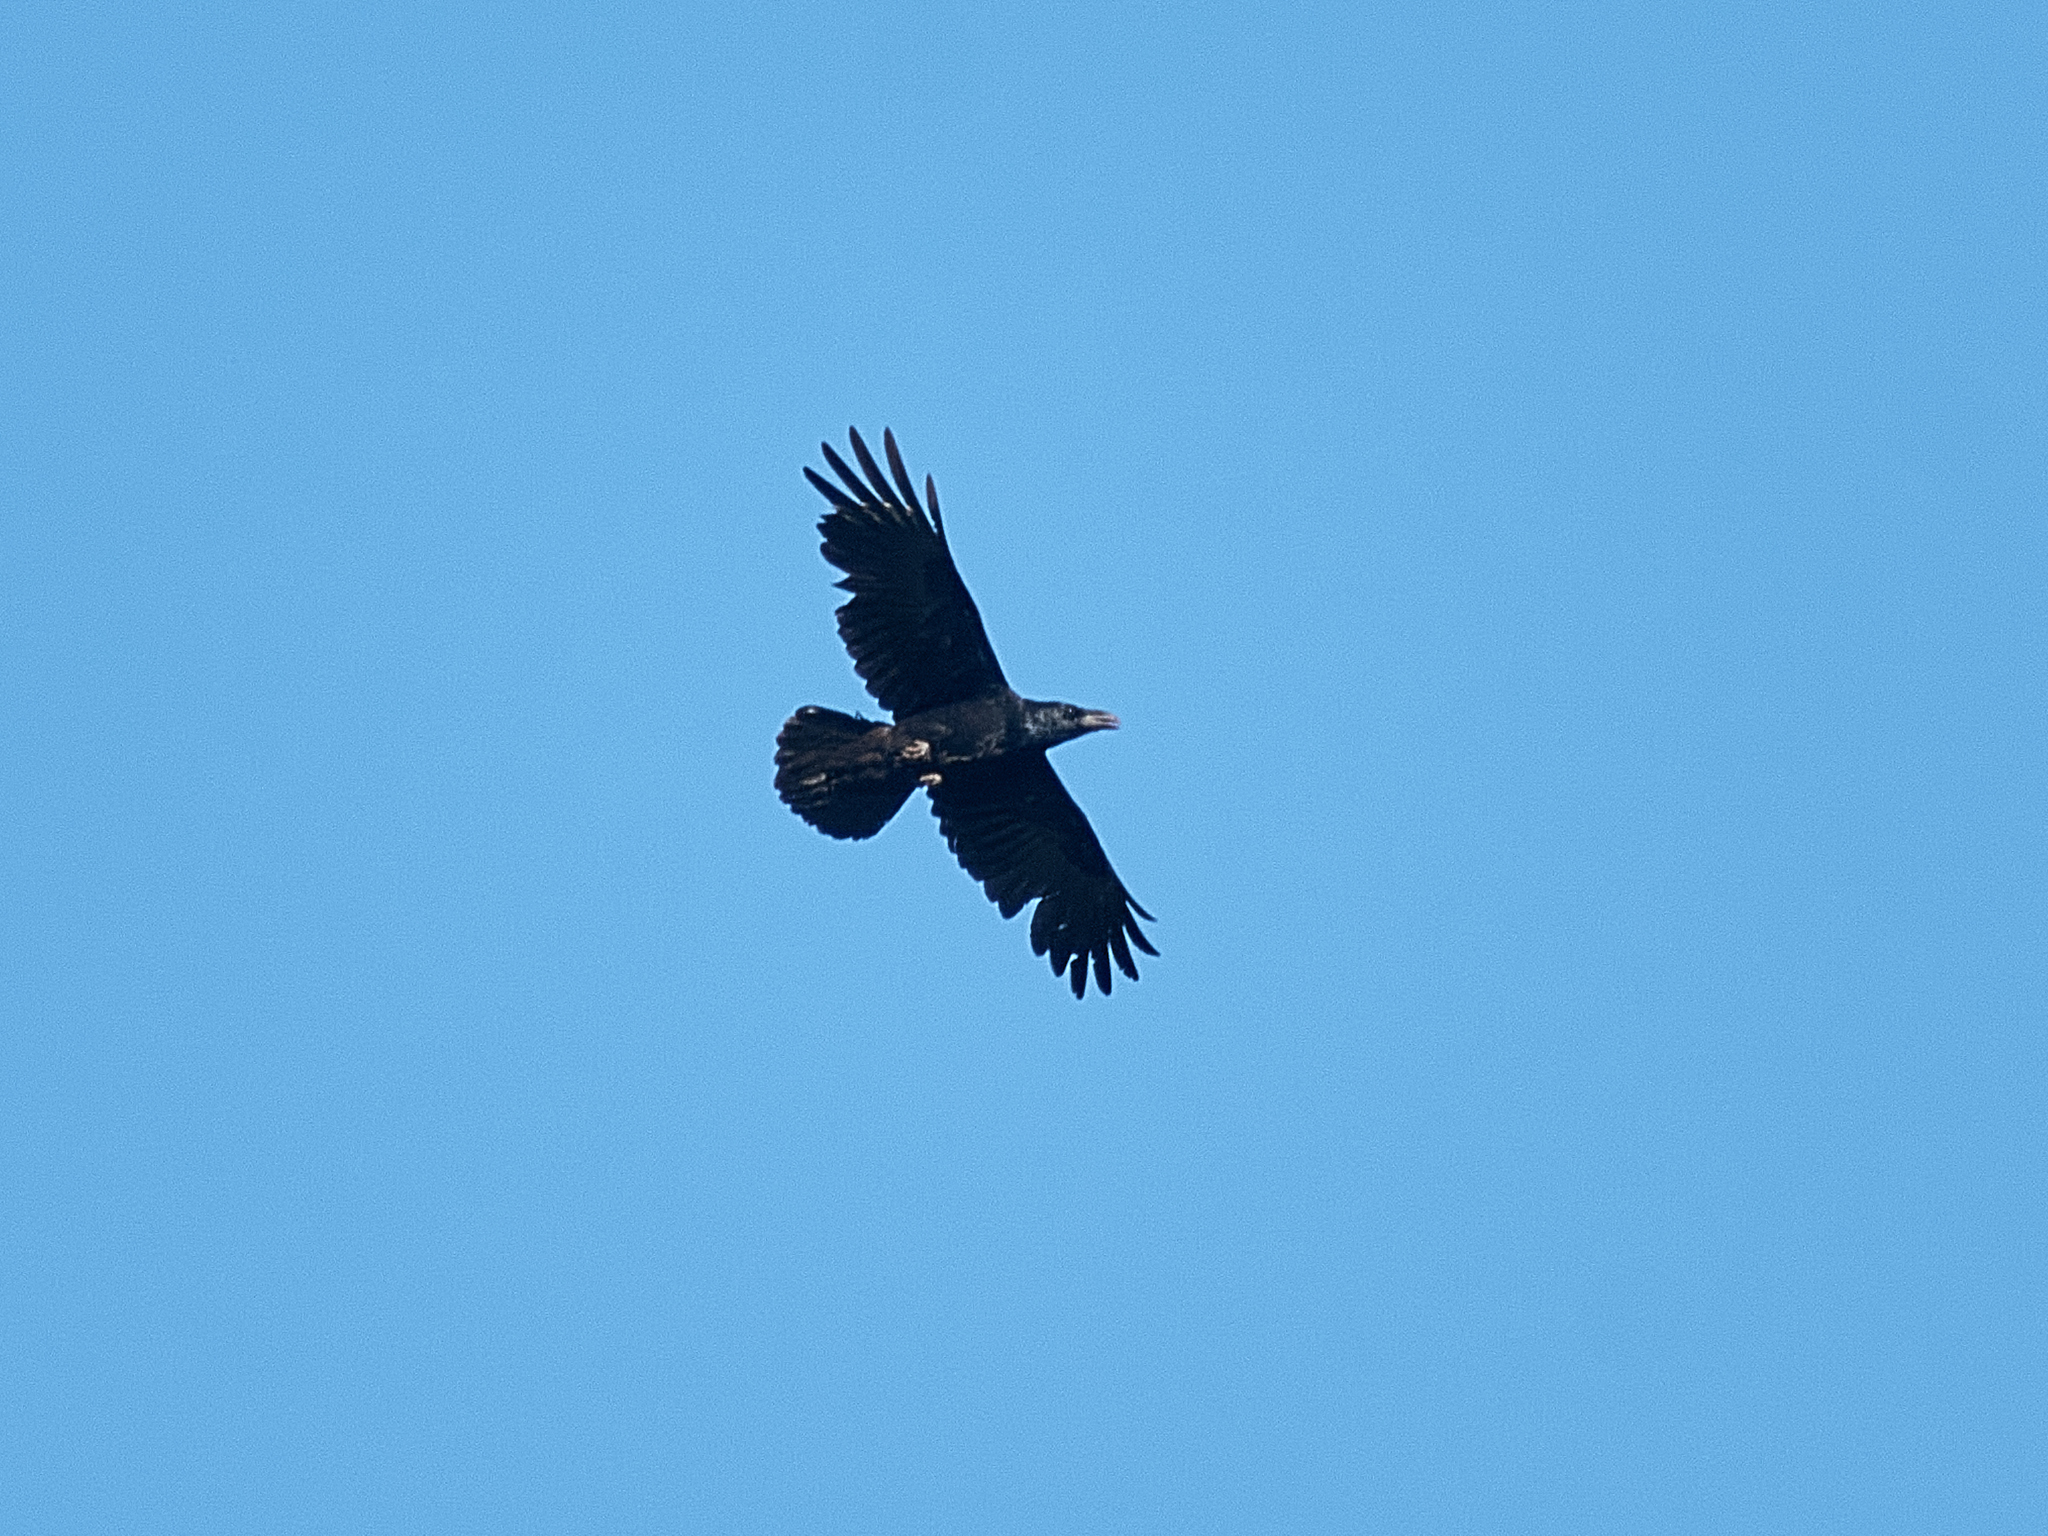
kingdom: Animalia
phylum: Chordata
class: Aves
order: Passeriformes
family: Corvidae
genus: Corvus
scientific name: Corvus corax
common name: Common raven
